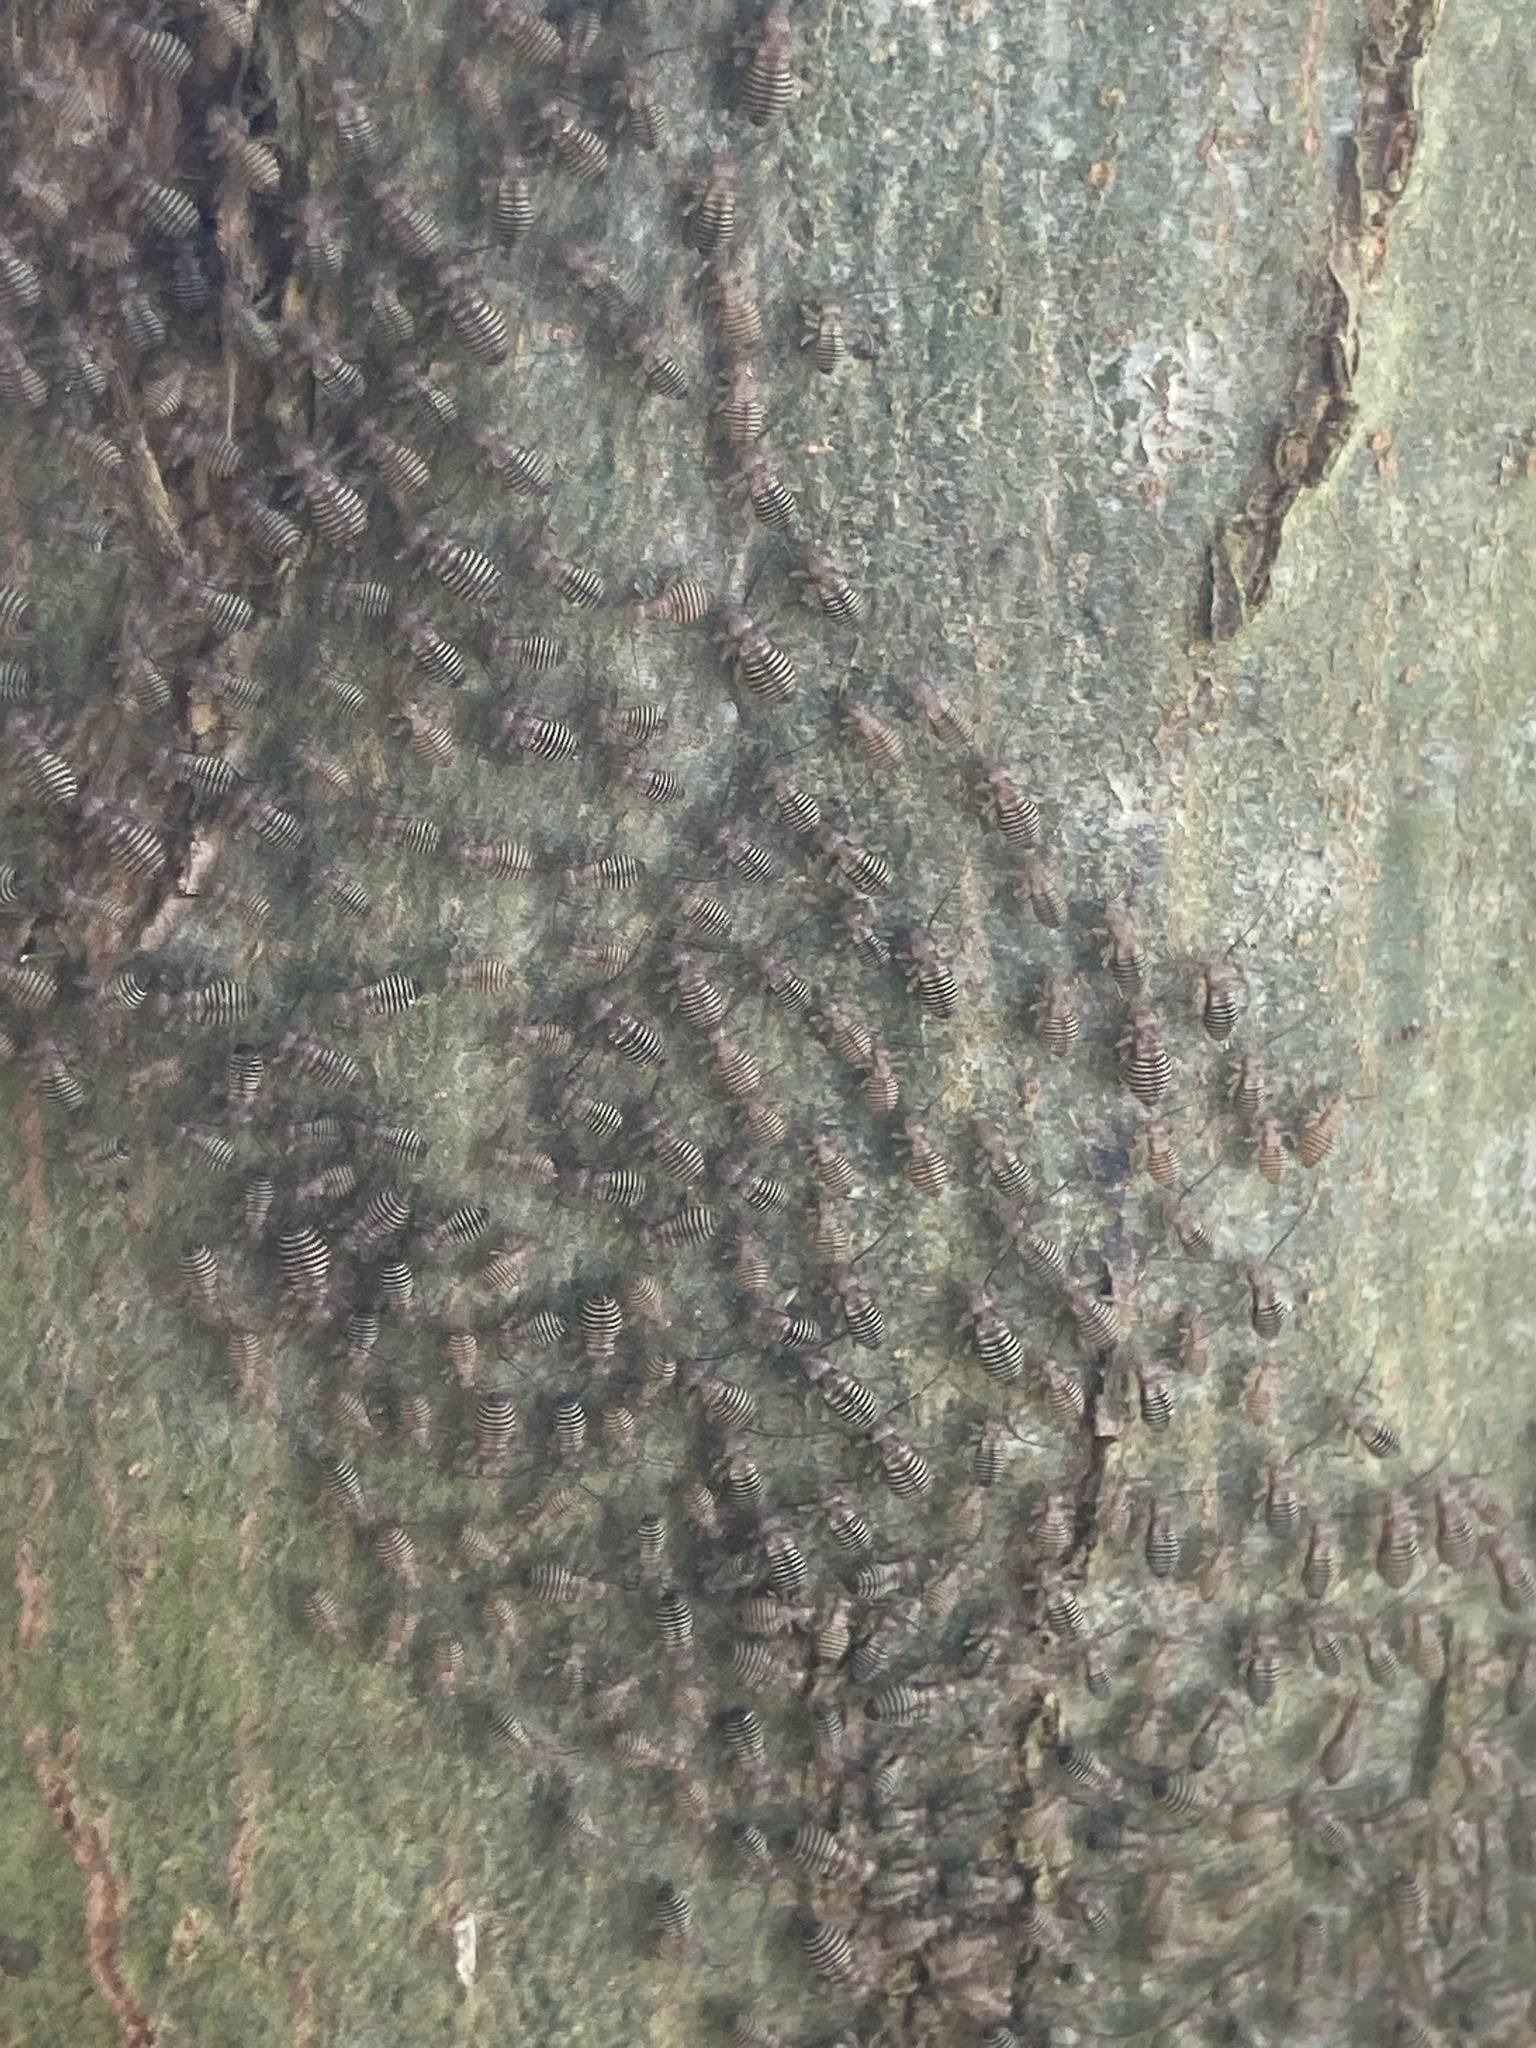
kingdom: Animalia
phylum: Arthropoda
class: Insecta
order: Psocodea
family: Psocidae
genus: Cerastipsocus
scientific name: Cerastipsocus venosus
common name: Tree cattle
